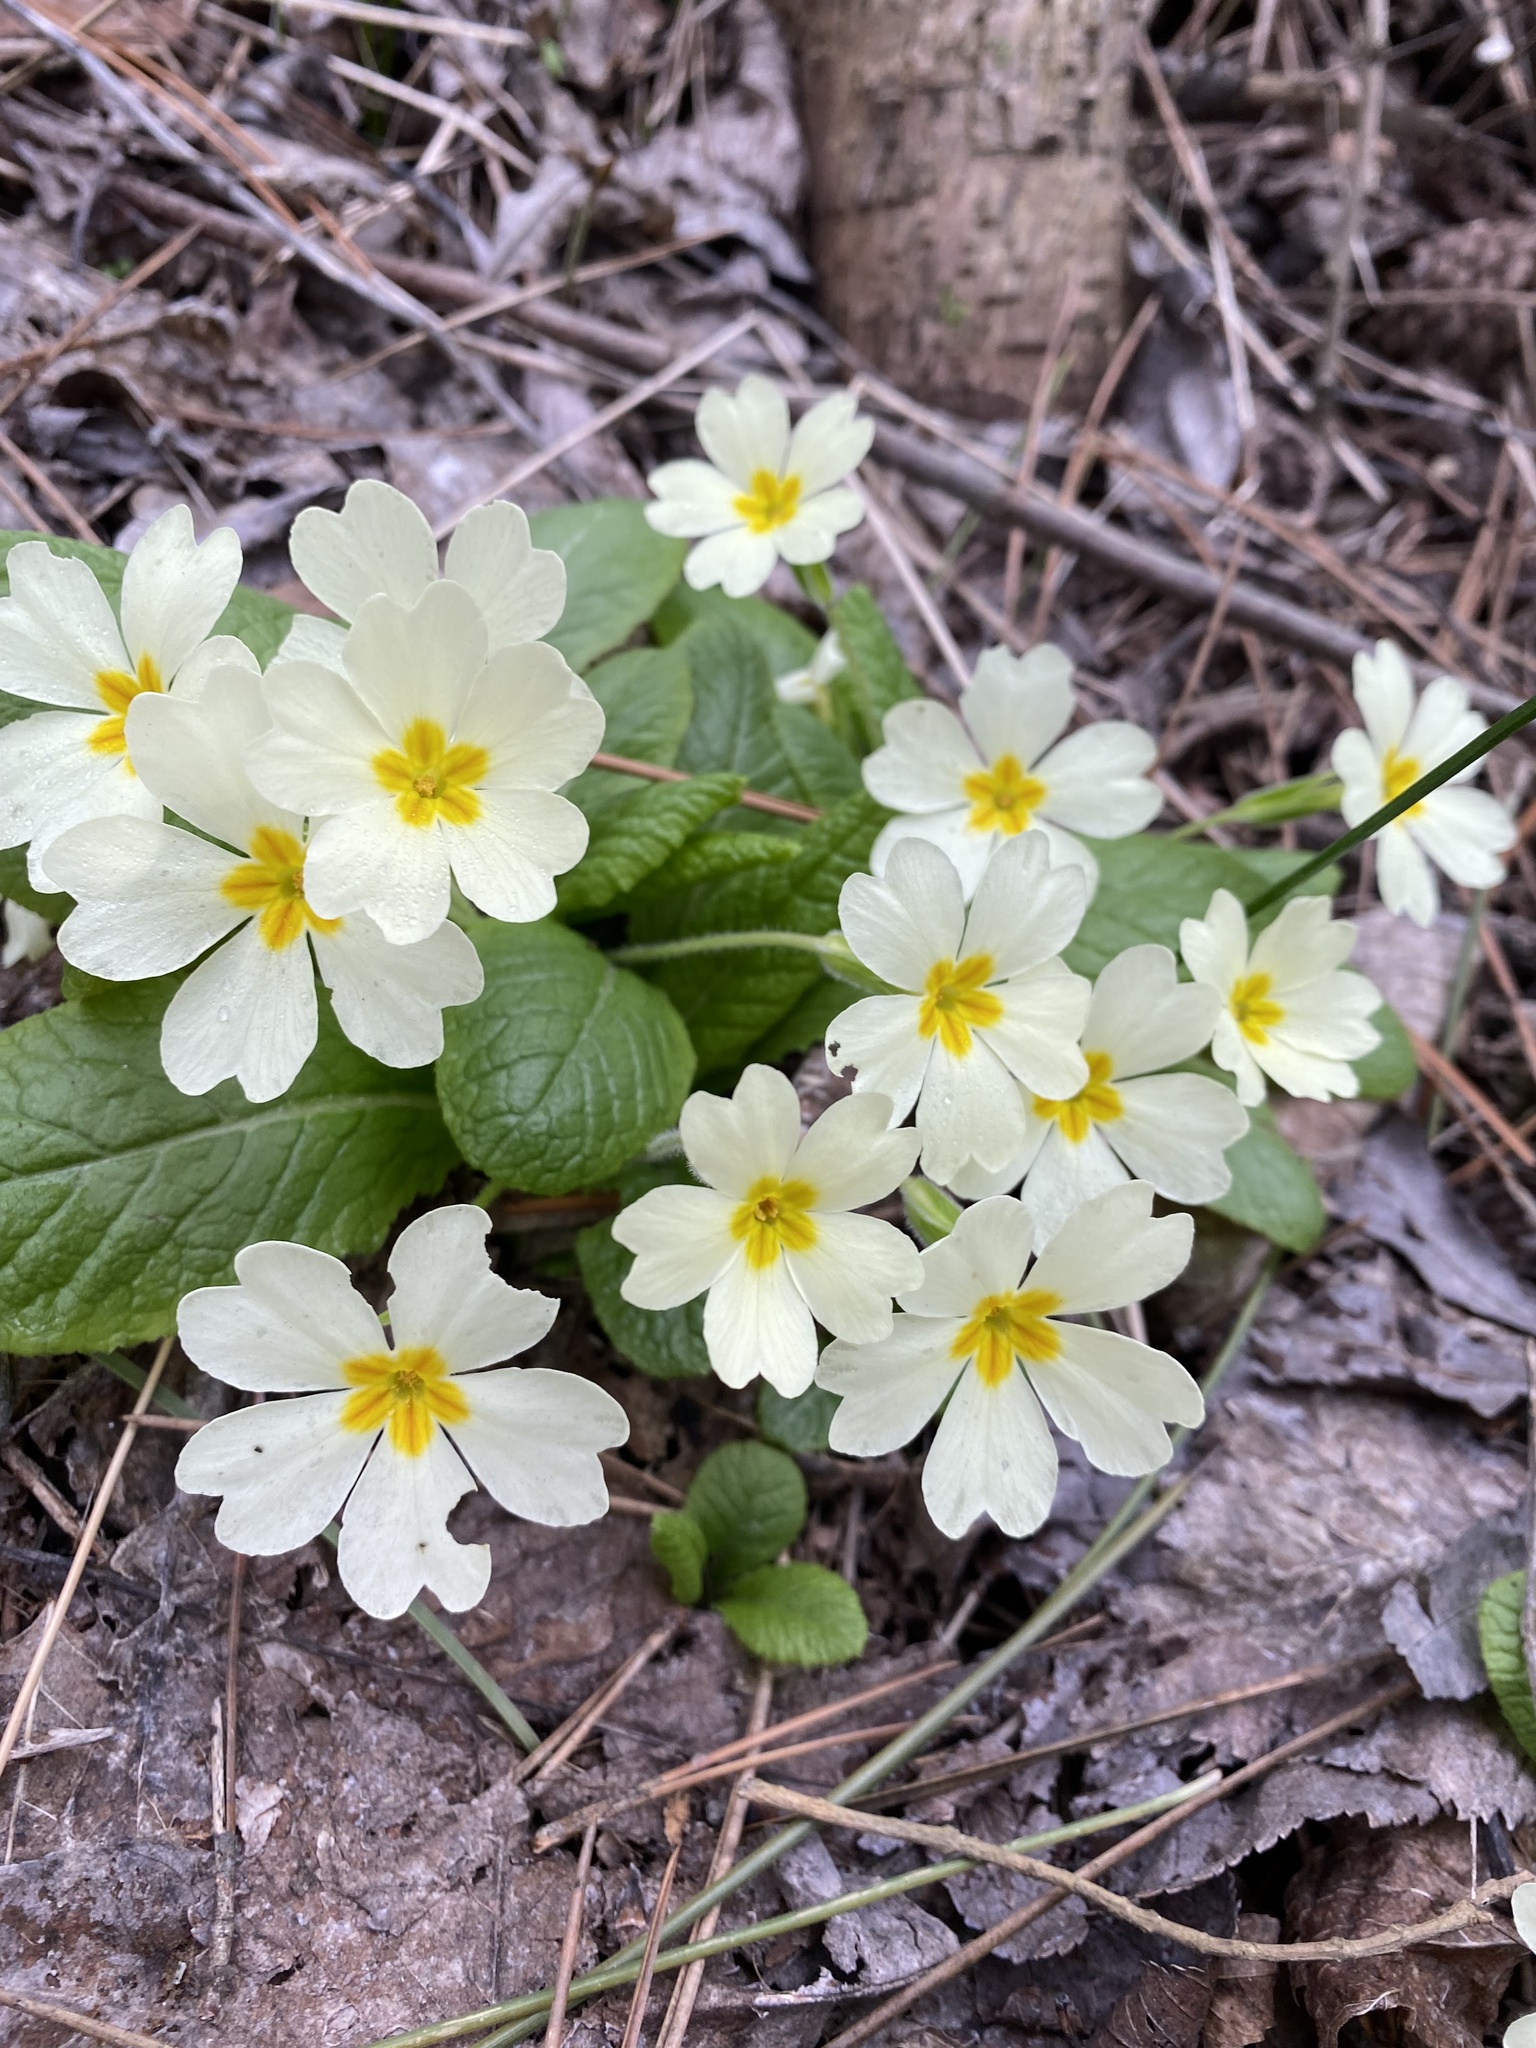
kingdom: Plantae
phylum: Tracheophyta
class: Magnoliopsida
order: Ericales
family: Primulaceae
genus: Primula
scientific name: Primula vulgaris
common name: Primrose
